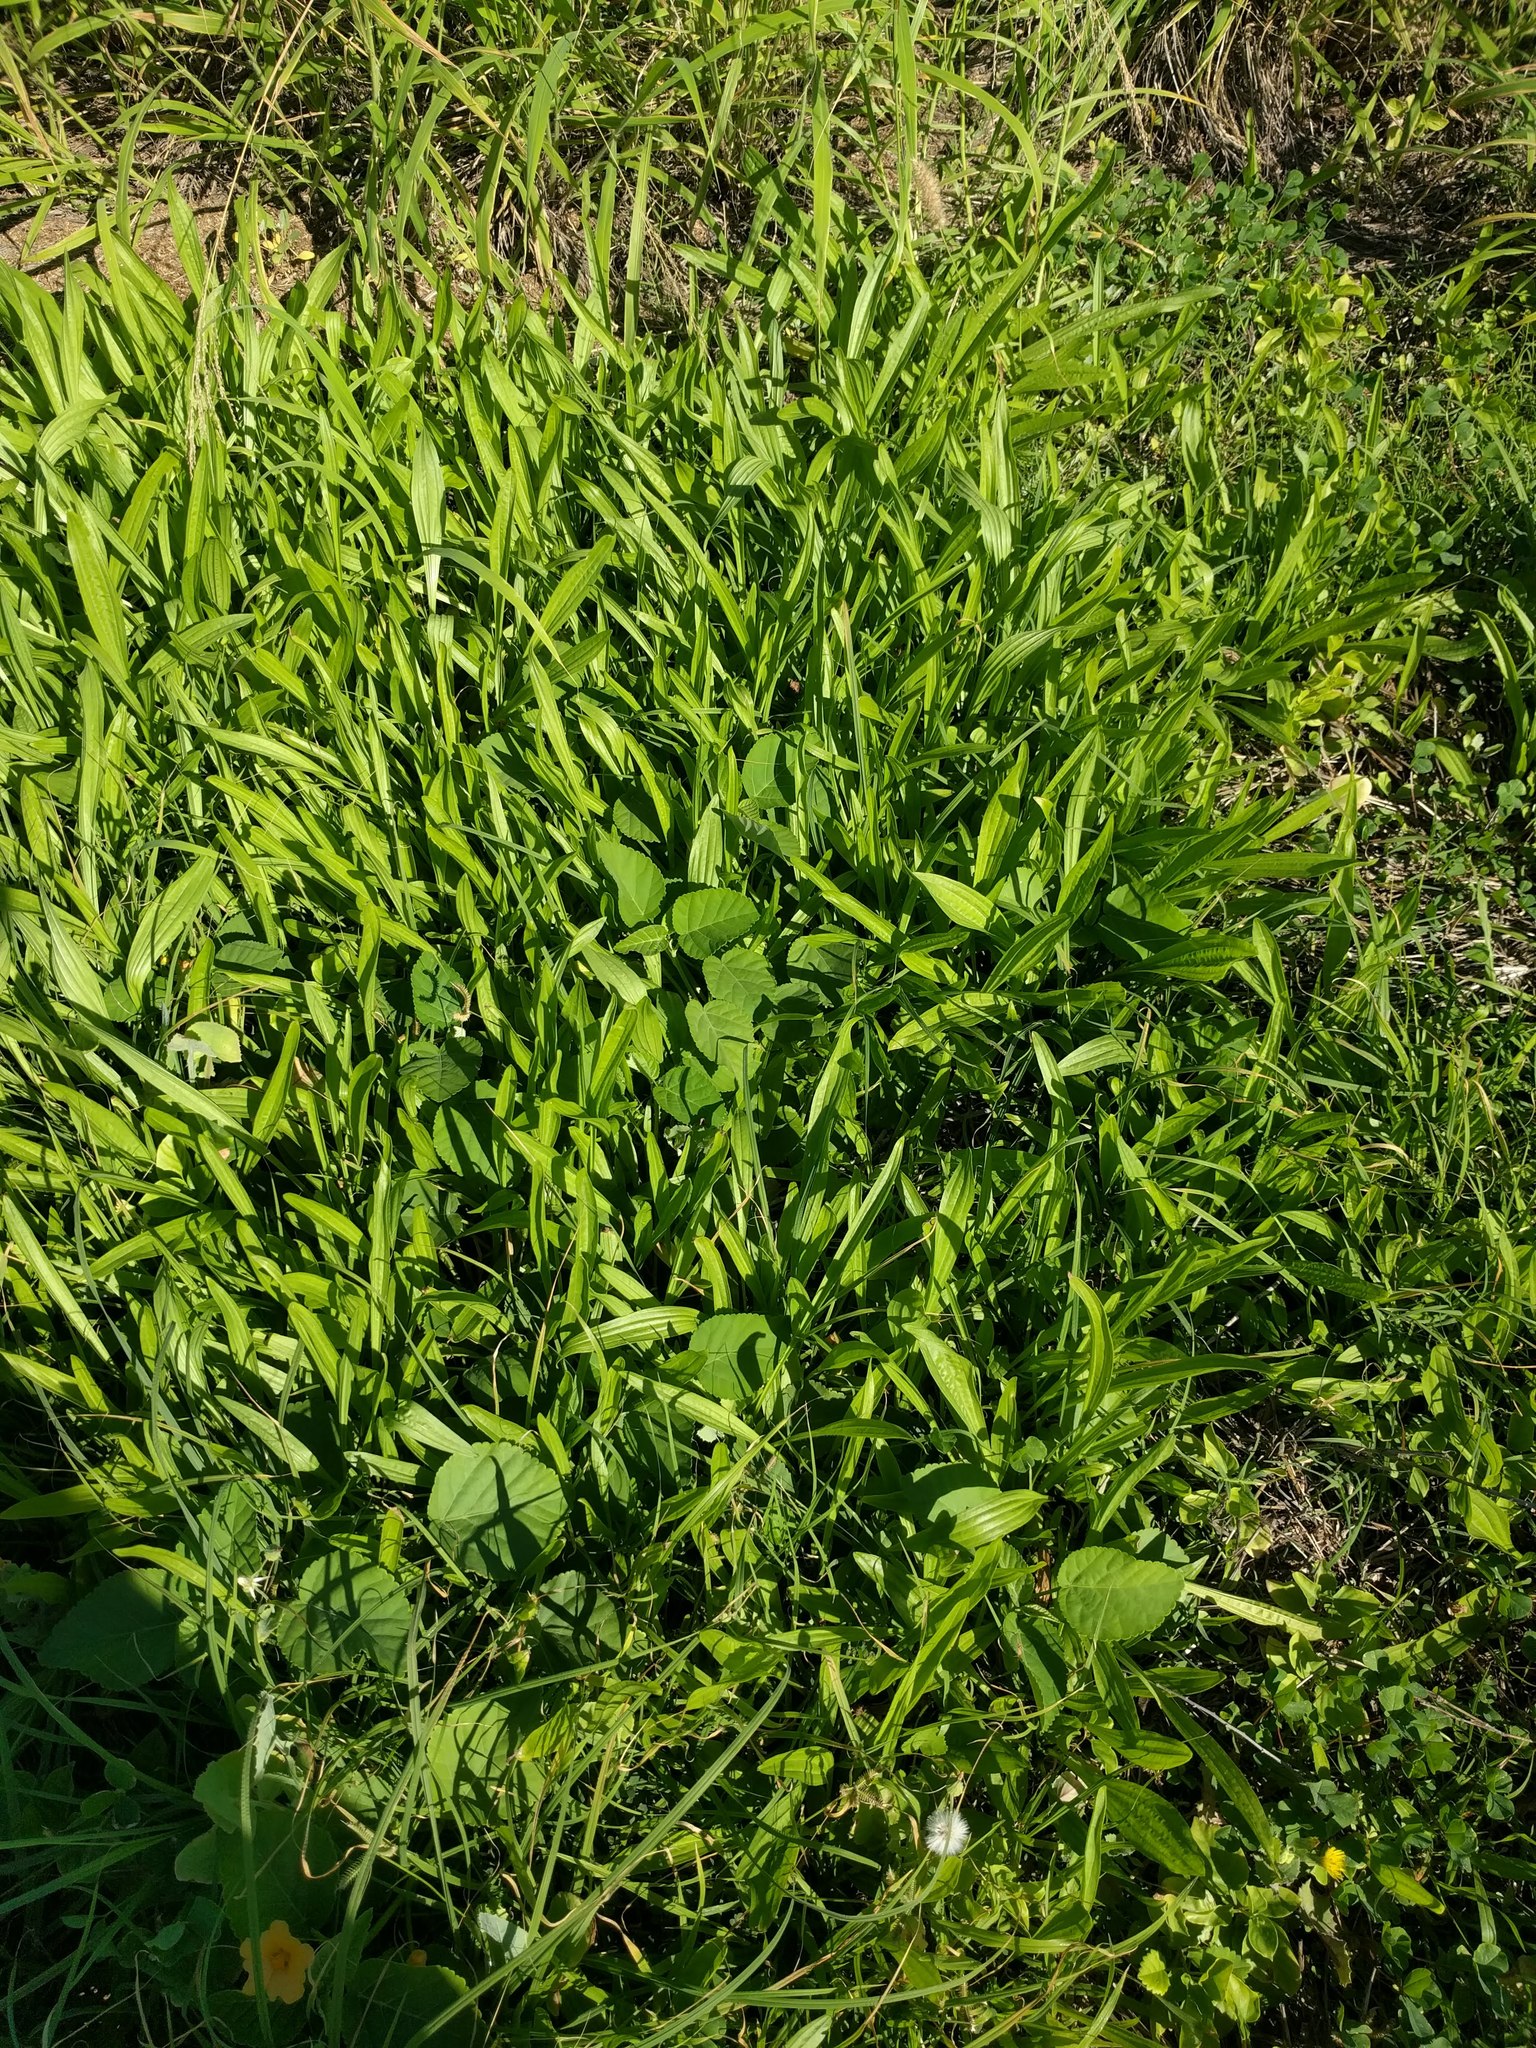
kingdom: Plantae
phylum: Tracheophyta
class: Magnoliopsida
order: Lamiales
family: Plantaginaceae
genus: Plantago
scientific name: Plantago lanceolata
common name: Ribwort plantain
